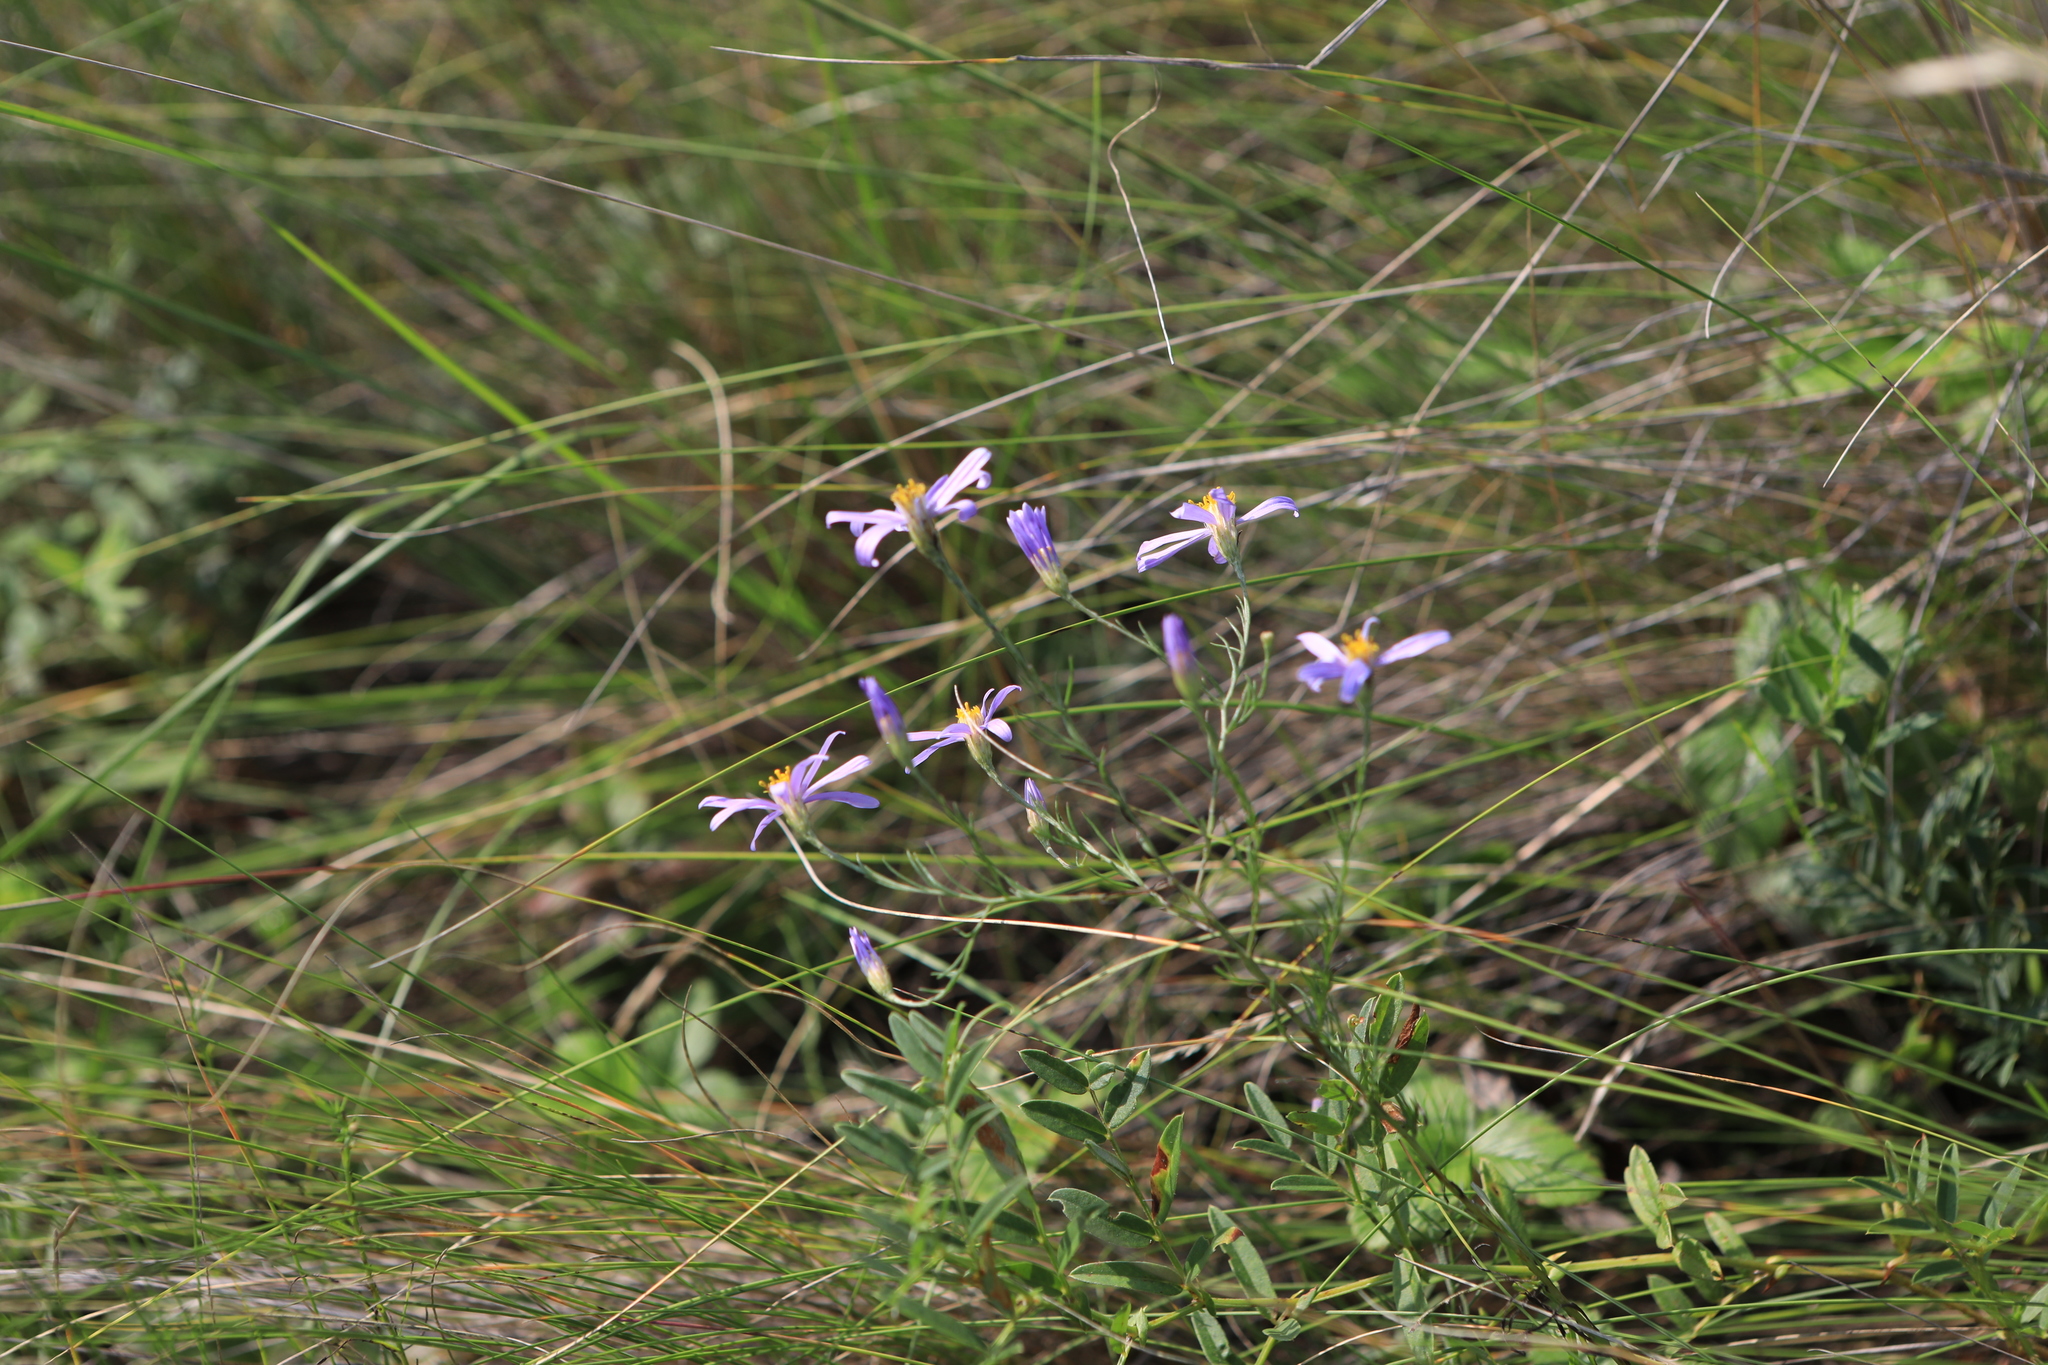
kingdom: Plantae
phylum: Tracheophyta
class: Magnoliopsida
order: Asterales
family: Asteraceae
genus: Galatella
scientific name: Galatella angustissima
